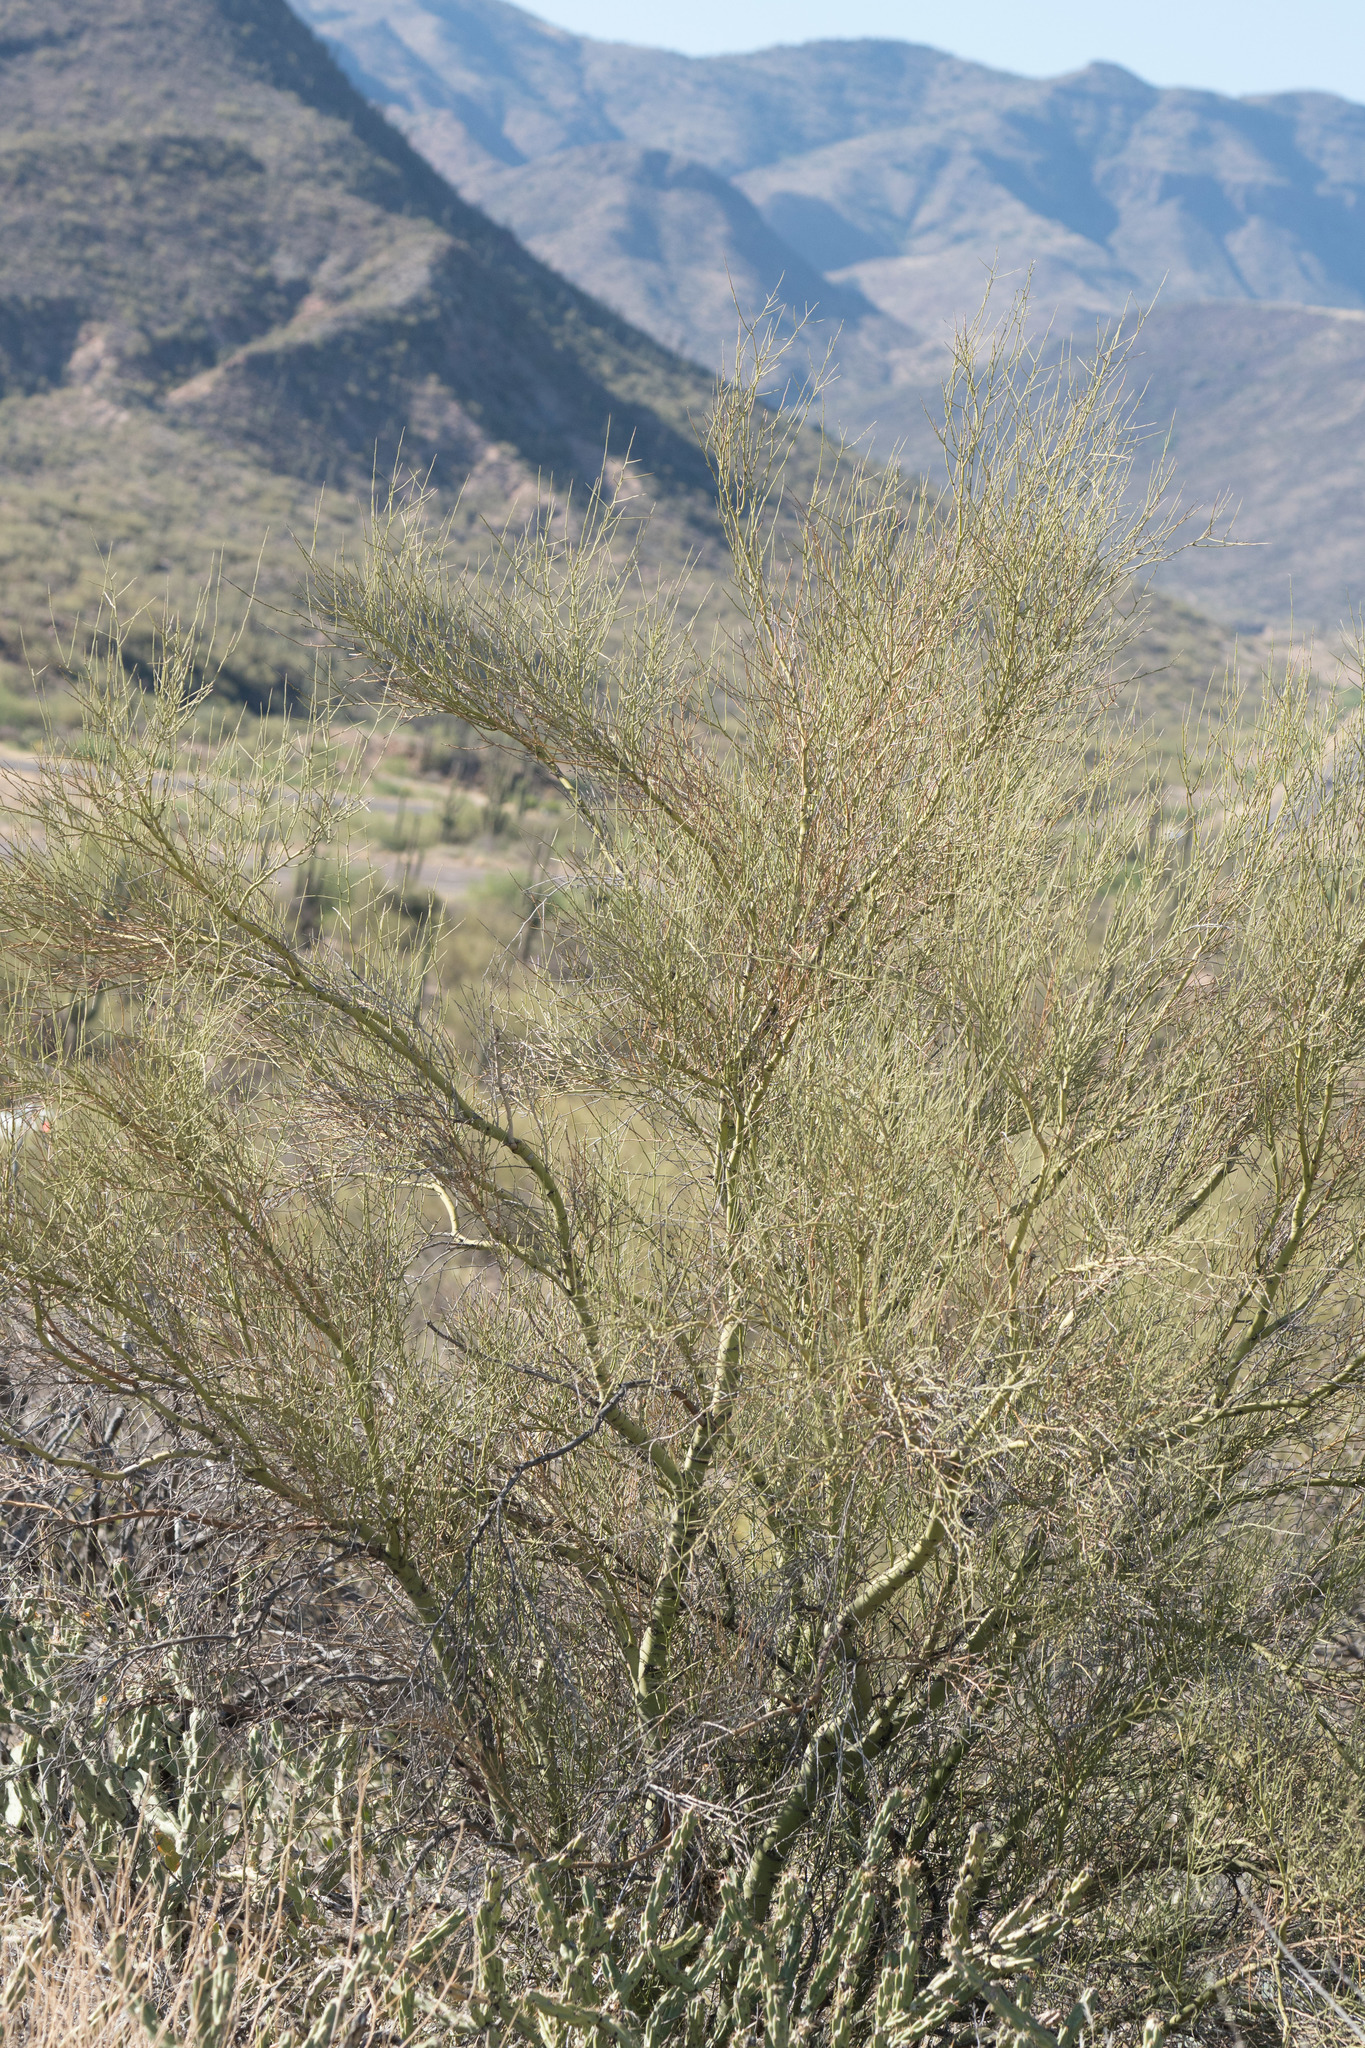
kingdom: Plantae
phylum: Tracheophyta
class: Magnoliopsida
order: Fabales
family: Fabaceae
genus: Parkinsonia
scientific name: Parkinsonia microphylla
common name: Yellow paloverde
